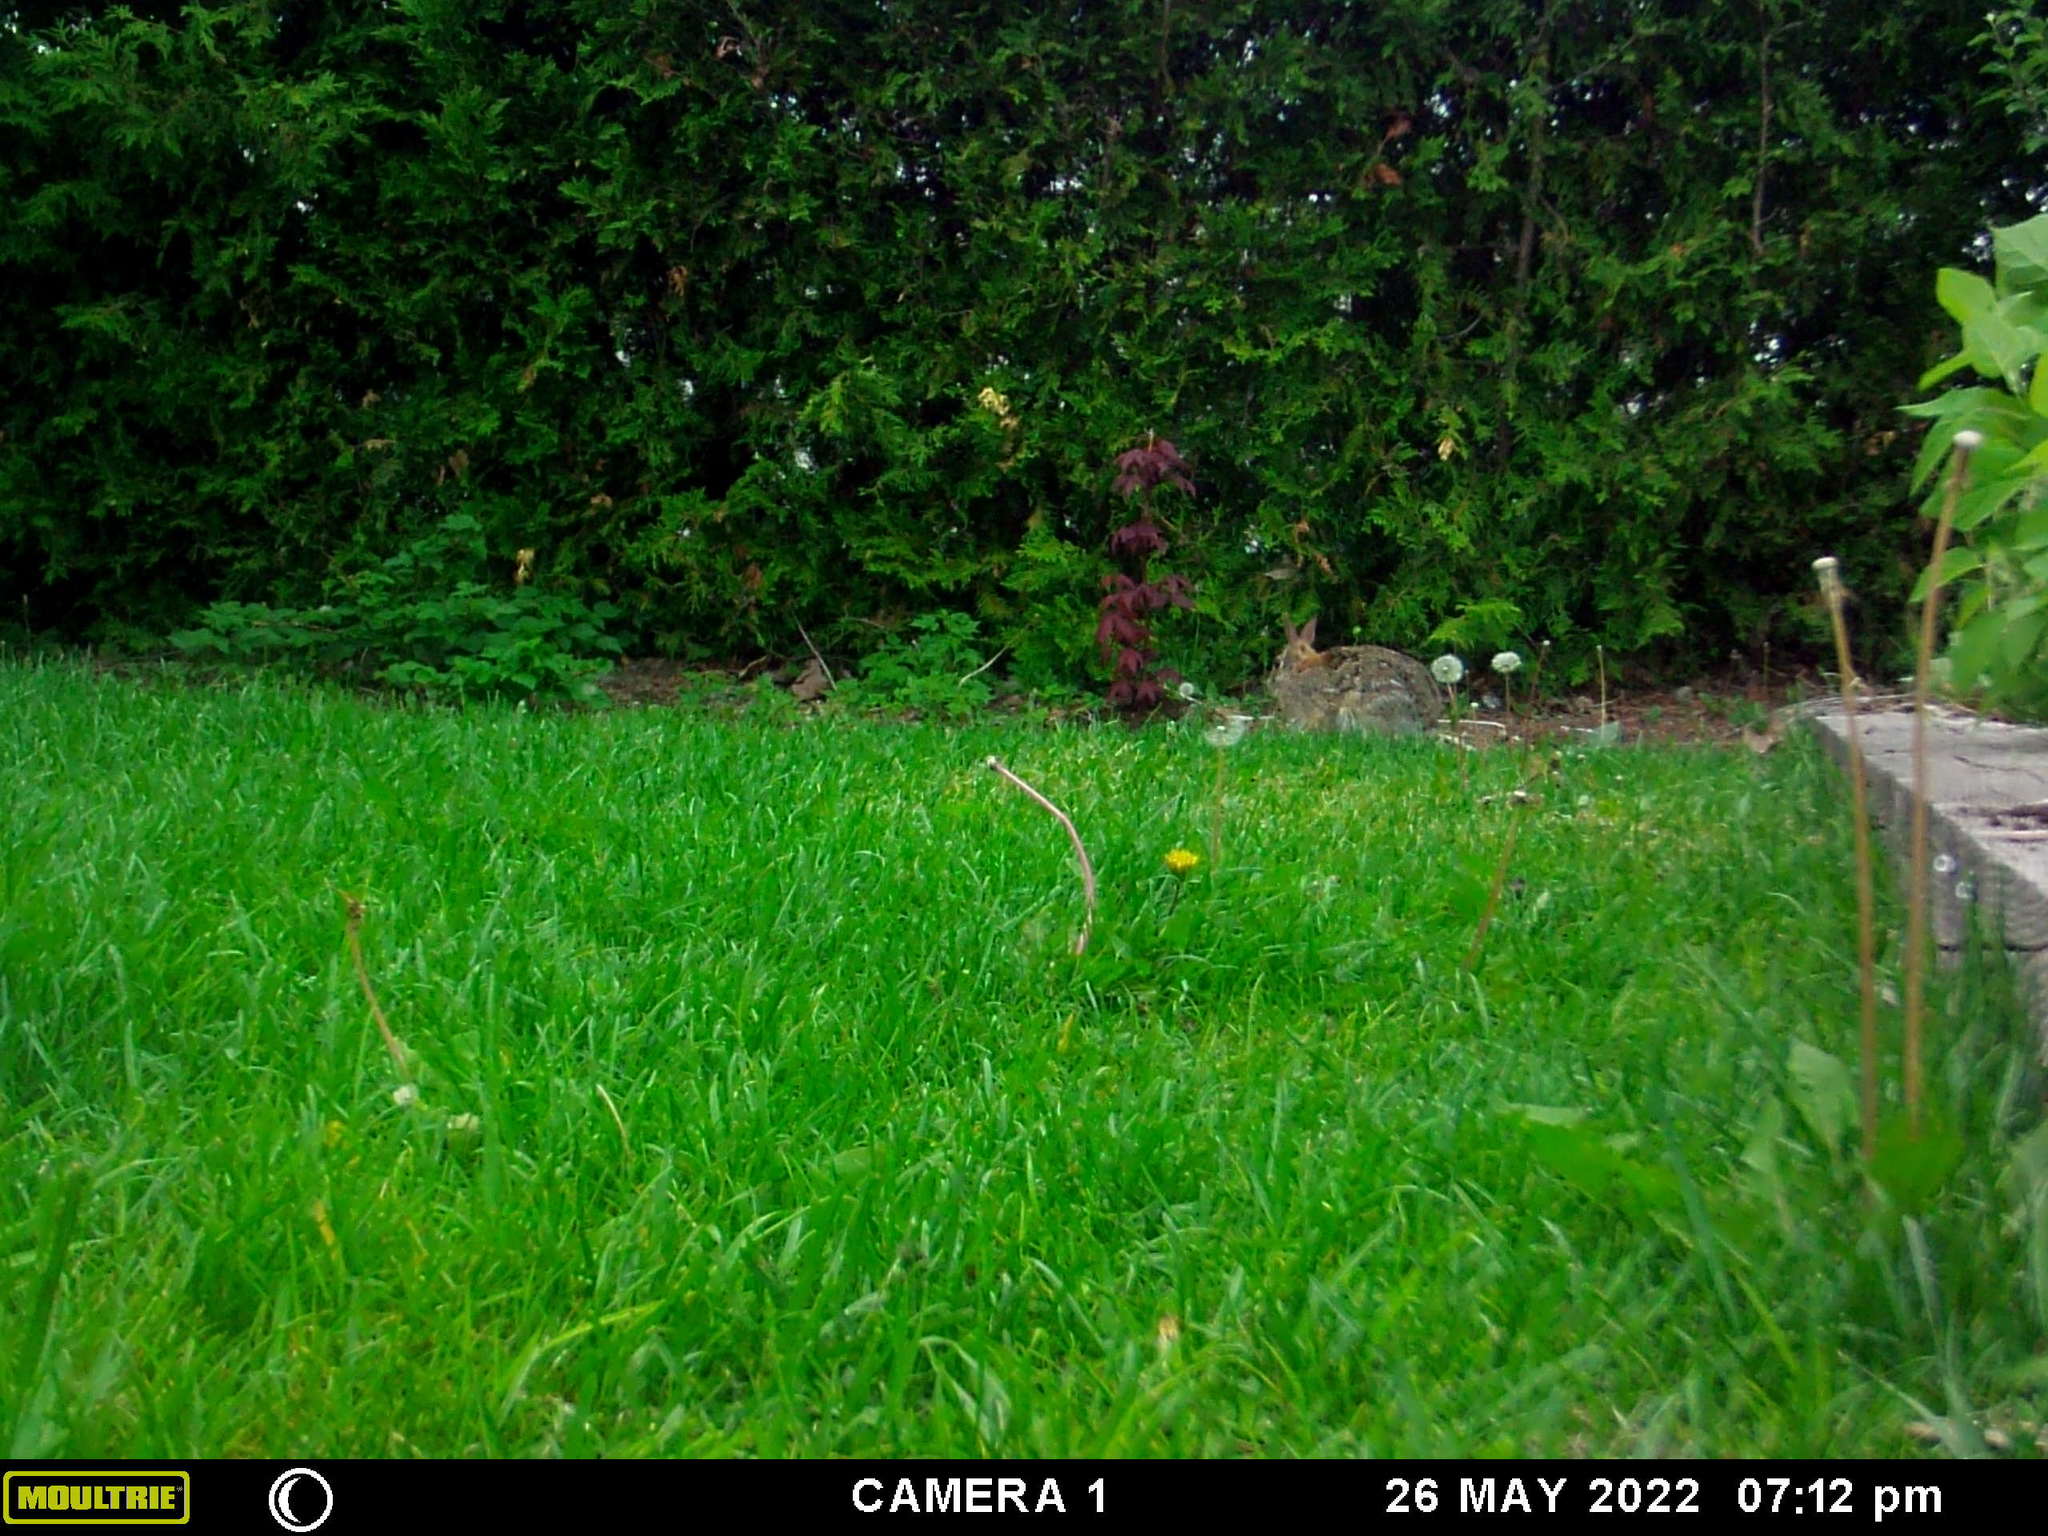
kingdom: Animalia
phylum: Chordata
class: Mammalia
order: Lagomorpha
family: Leporidae
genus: Sylvilagus
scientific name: Sylvilagus floridanus
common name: Eastern cottontail
